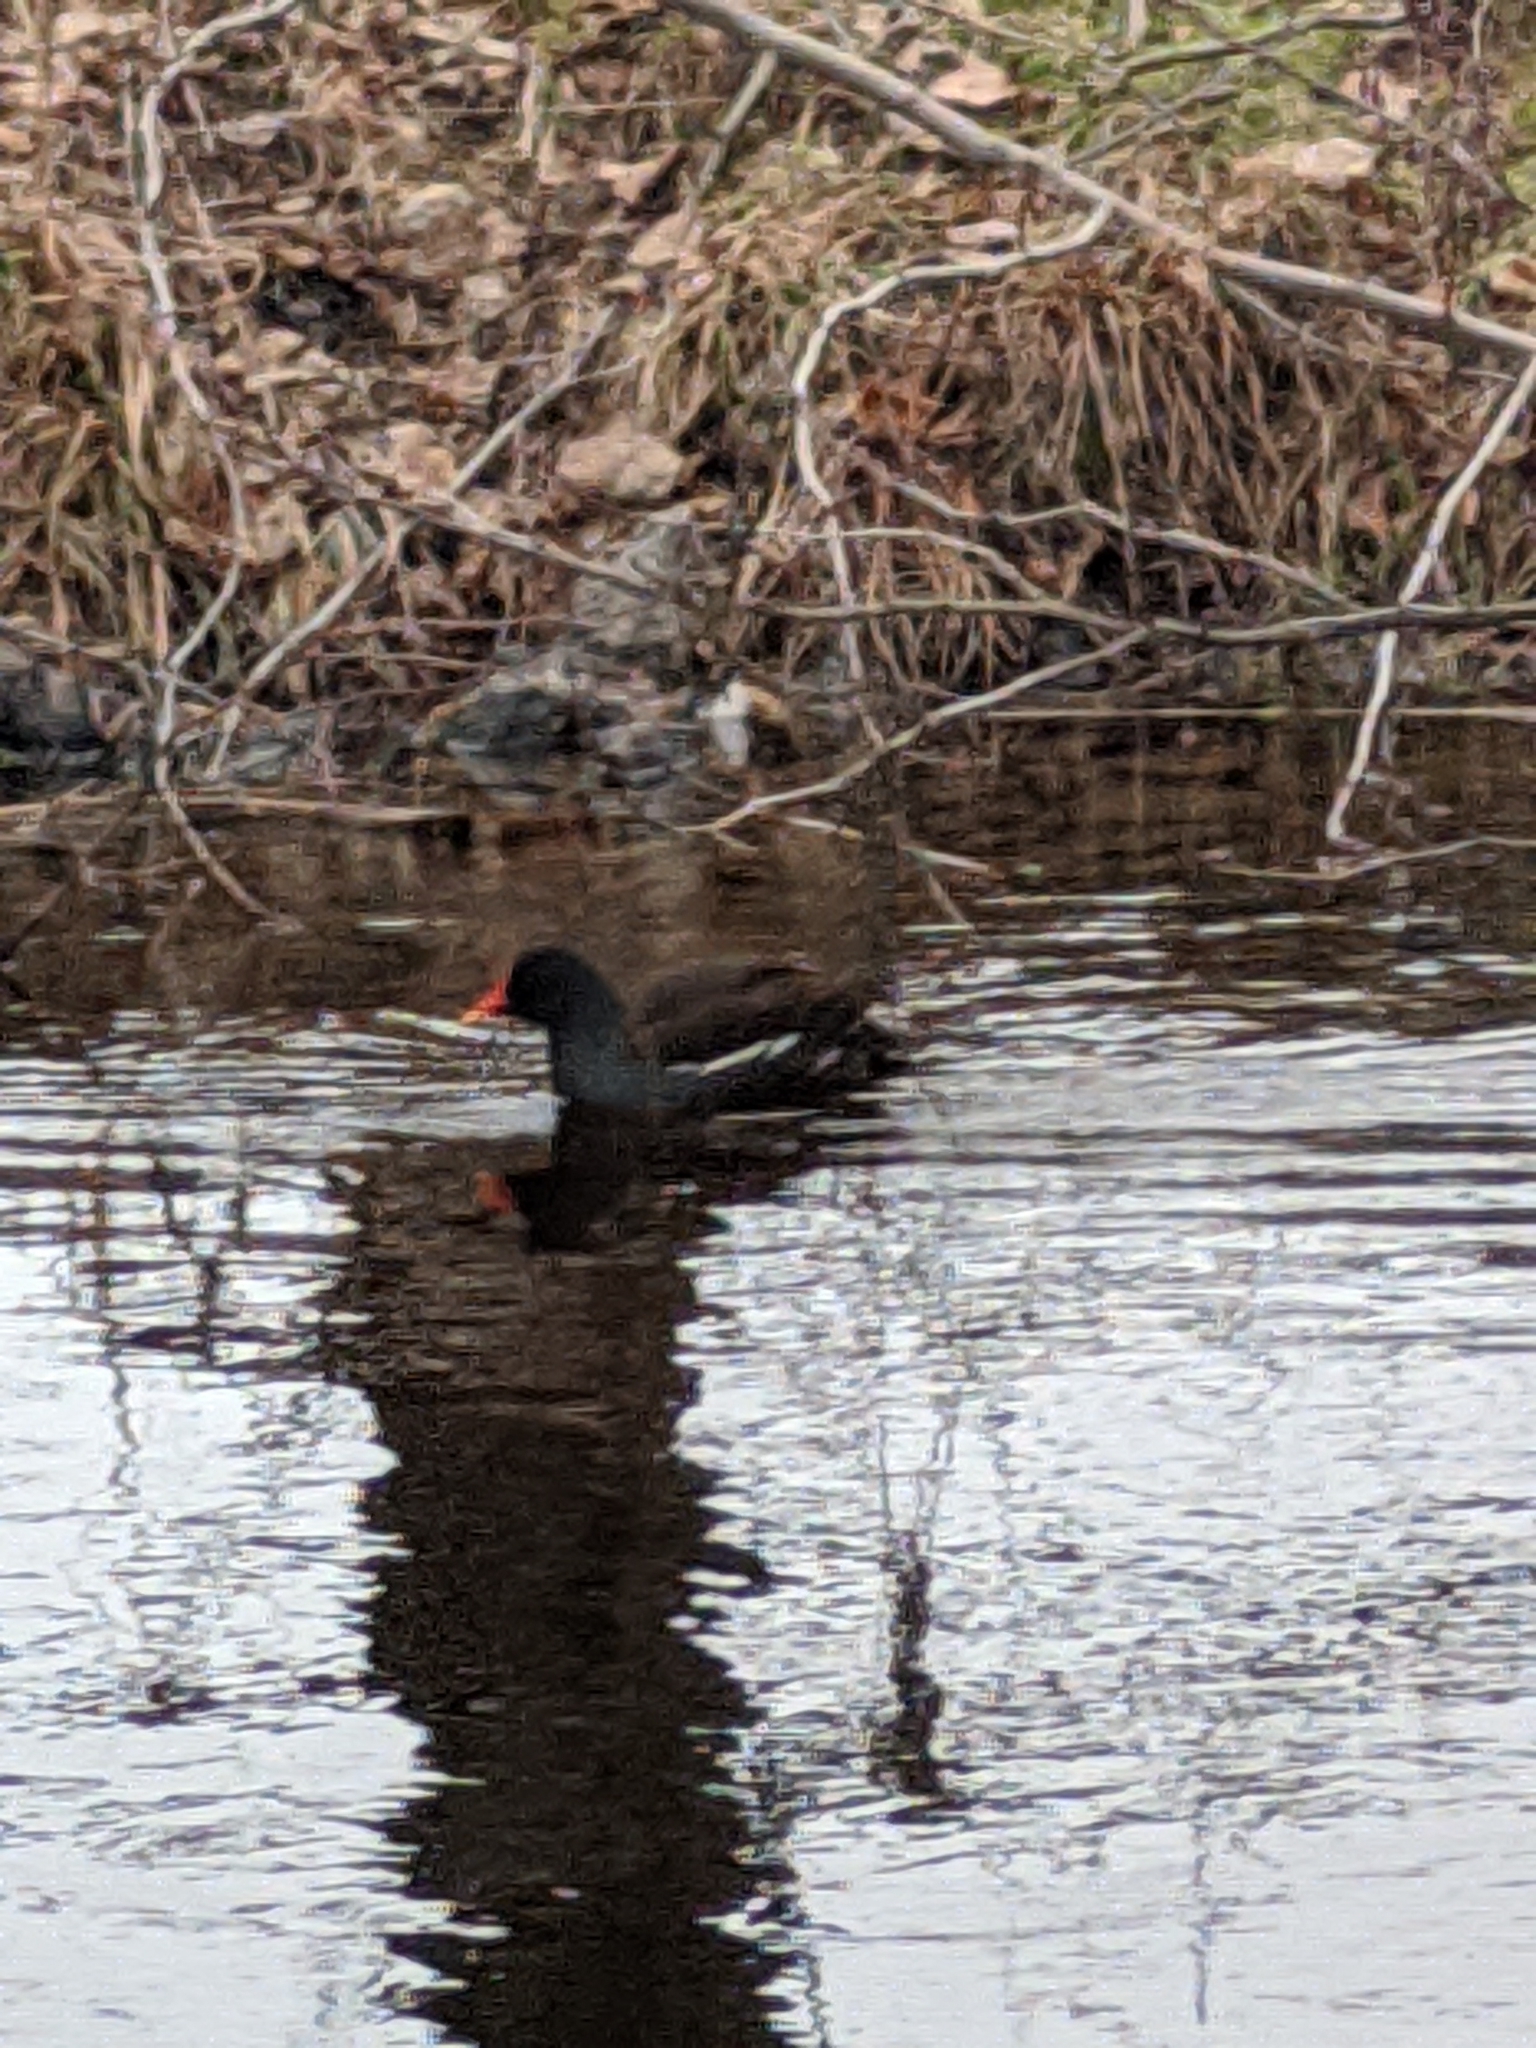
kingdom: Animalia
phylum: Chordata
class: Aves
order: Gruiformes
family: Rallidae
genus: Gallinula
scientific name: Gallinula chloropus
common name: Common moorhen
